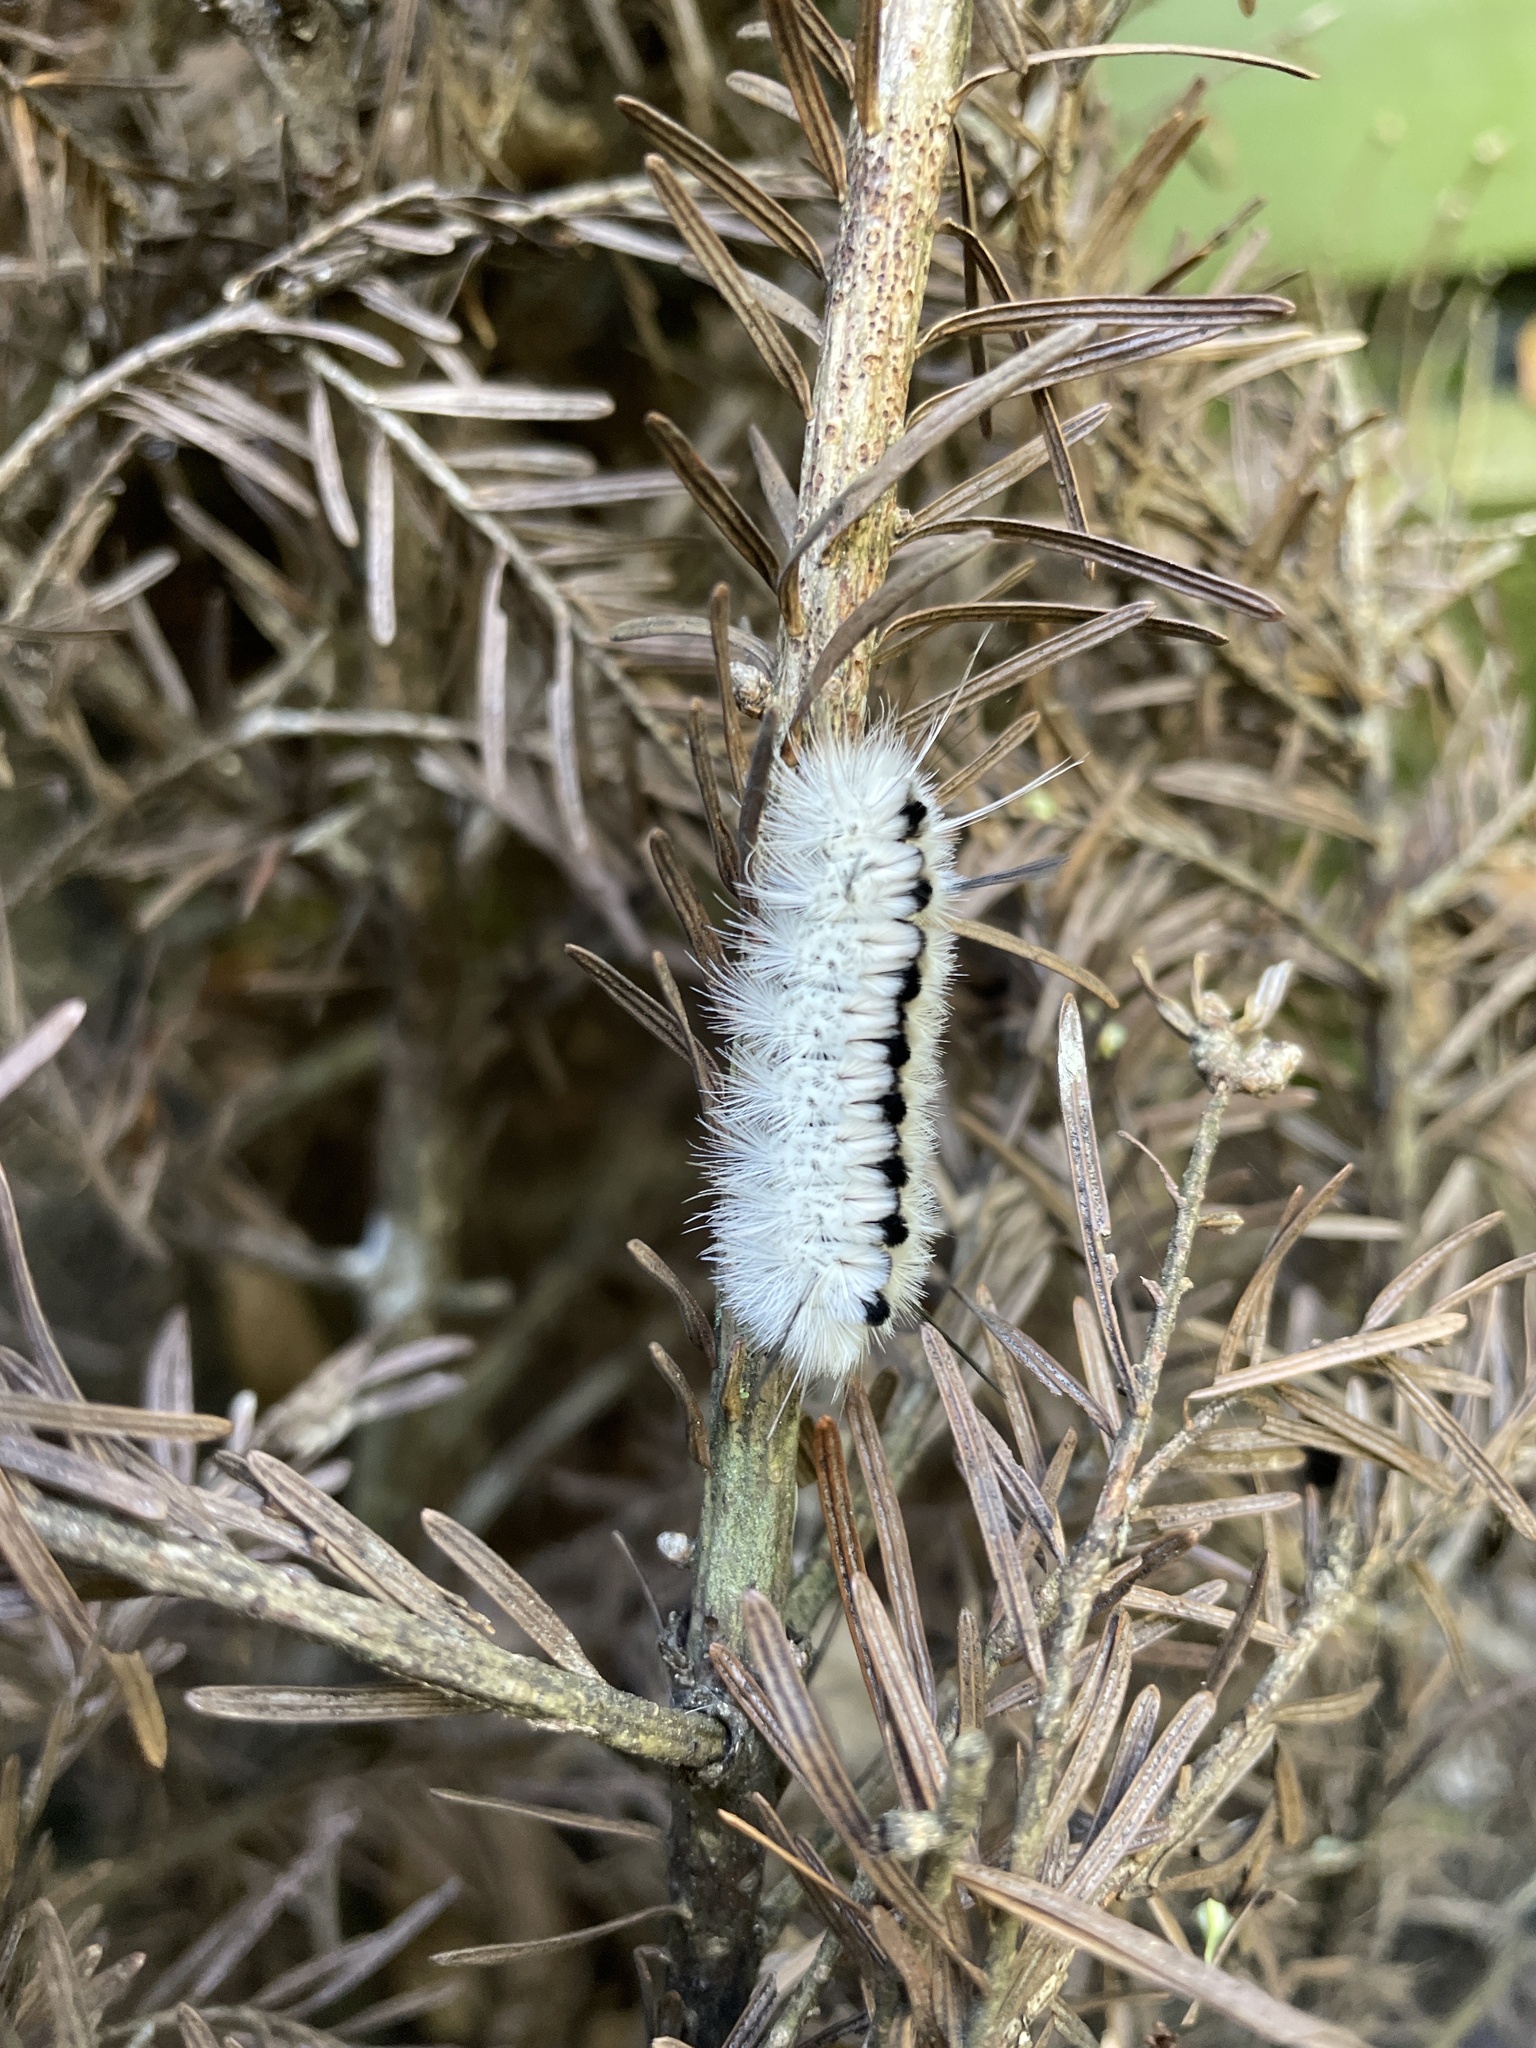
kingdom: Animalia
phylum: Arthropoda
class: Insecta
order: Lepidoptera
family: Erebidae
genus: Lophocampa
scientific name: Lophocampa caryae
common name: Hickory tussock moth
